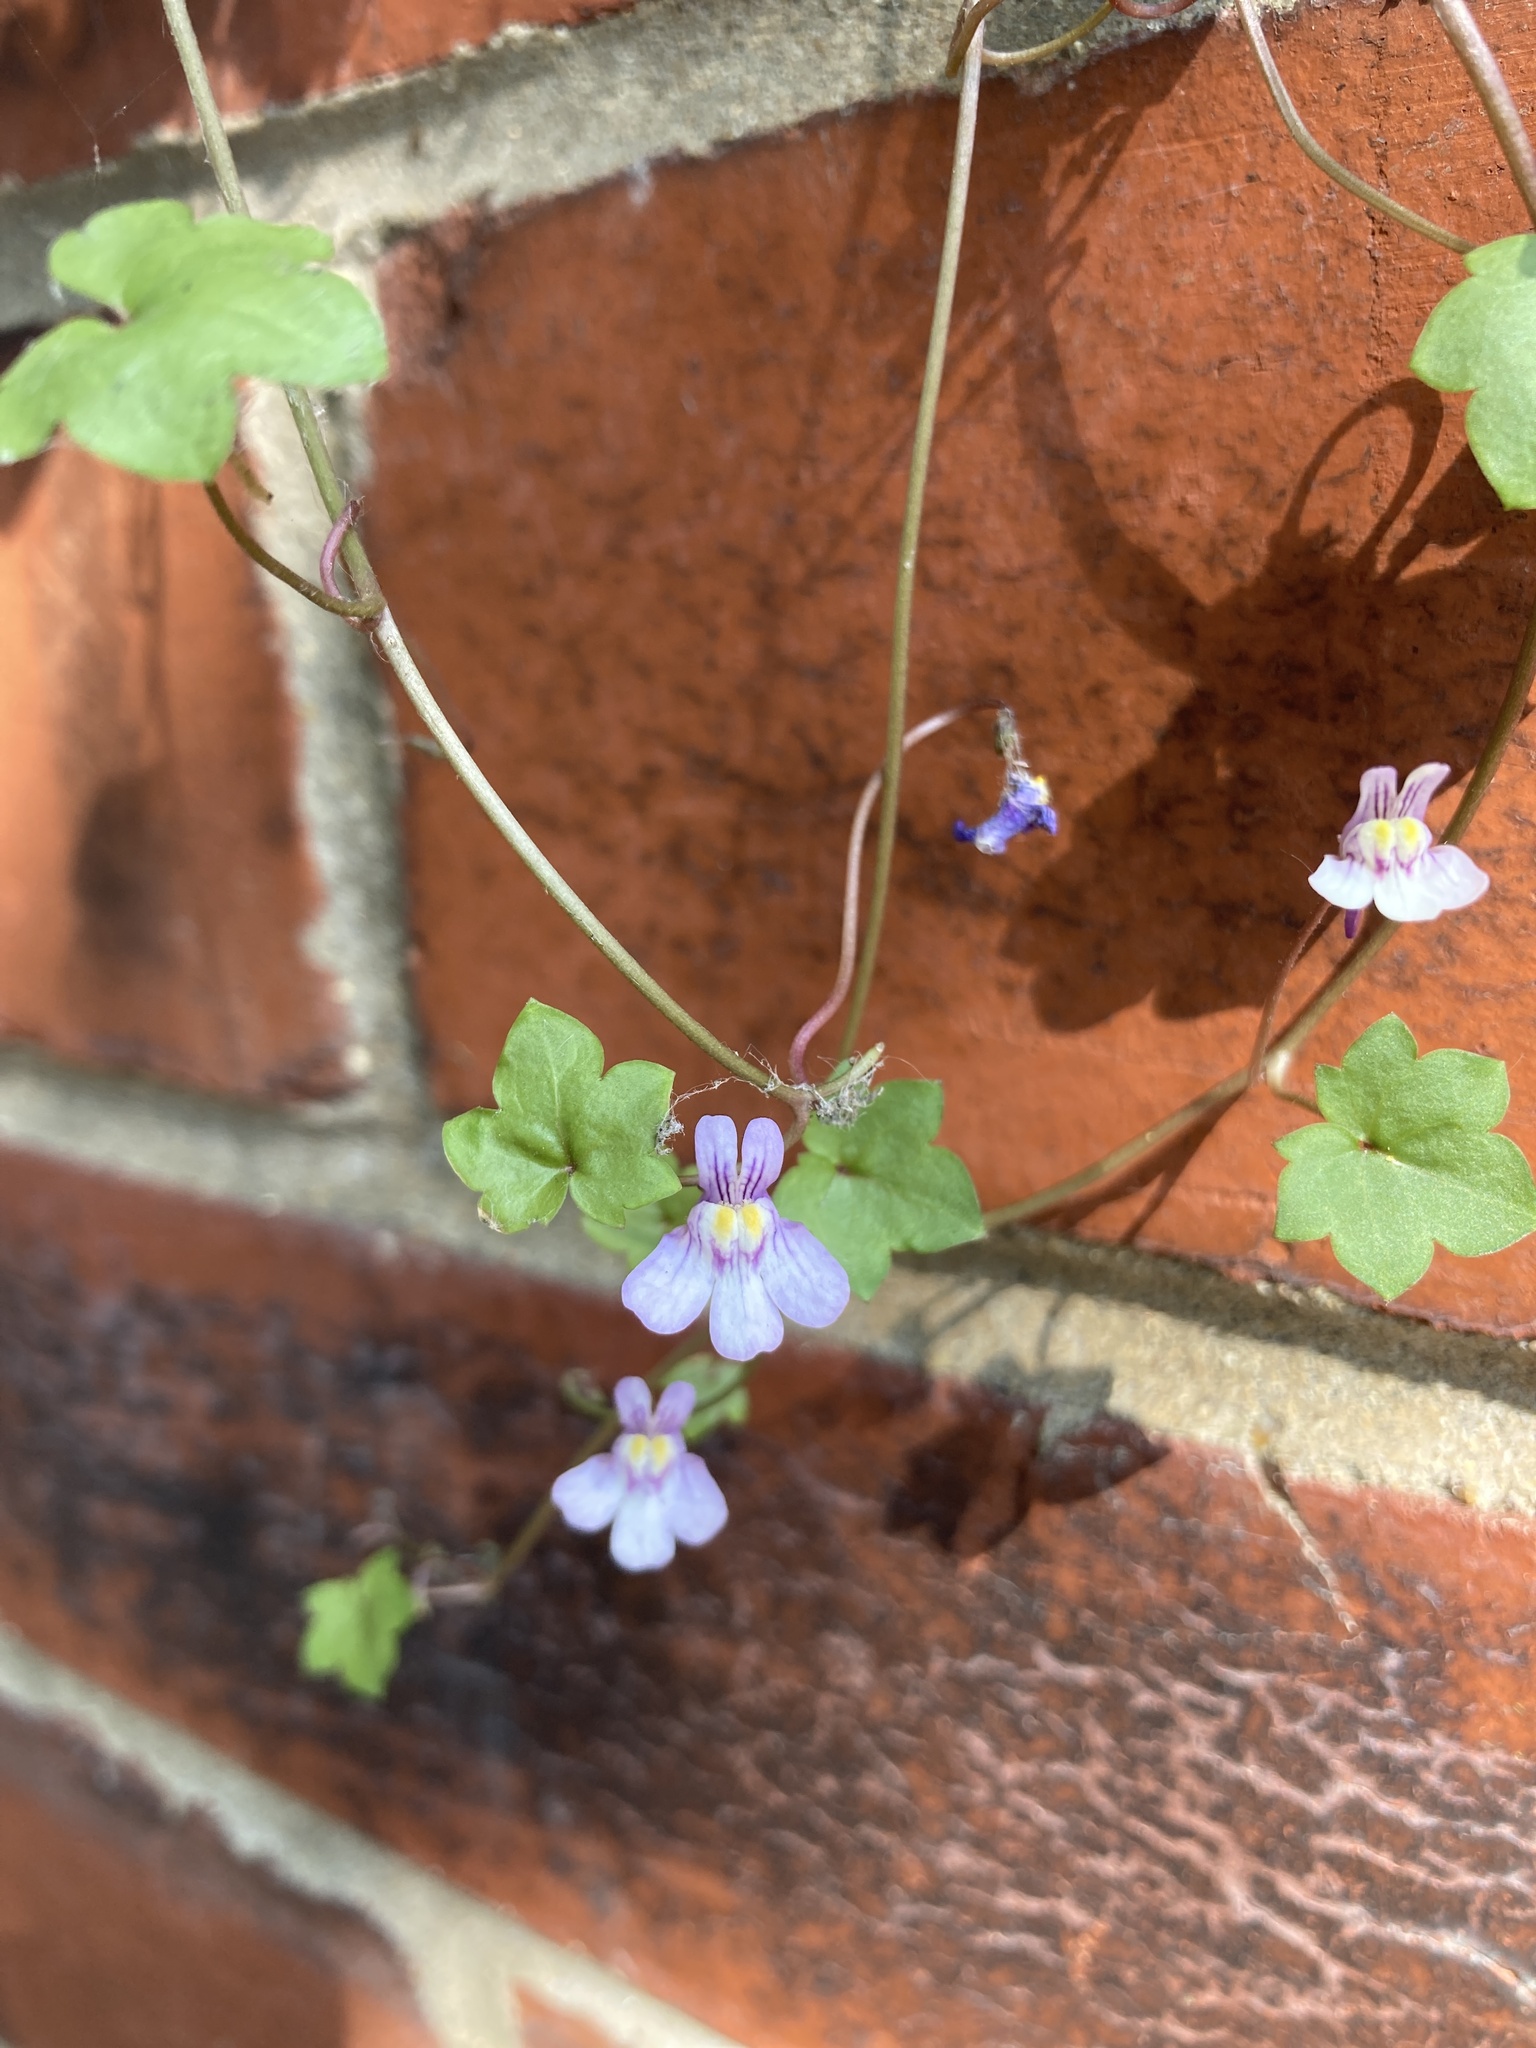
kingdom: Plantae
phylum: Tracheophyta
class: Magnoliopsida
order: Lamiales
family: Plantaginaceae
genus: Cymbalaria
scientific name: Cymbalaria muralis
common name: Ivy-leaved toadflax
